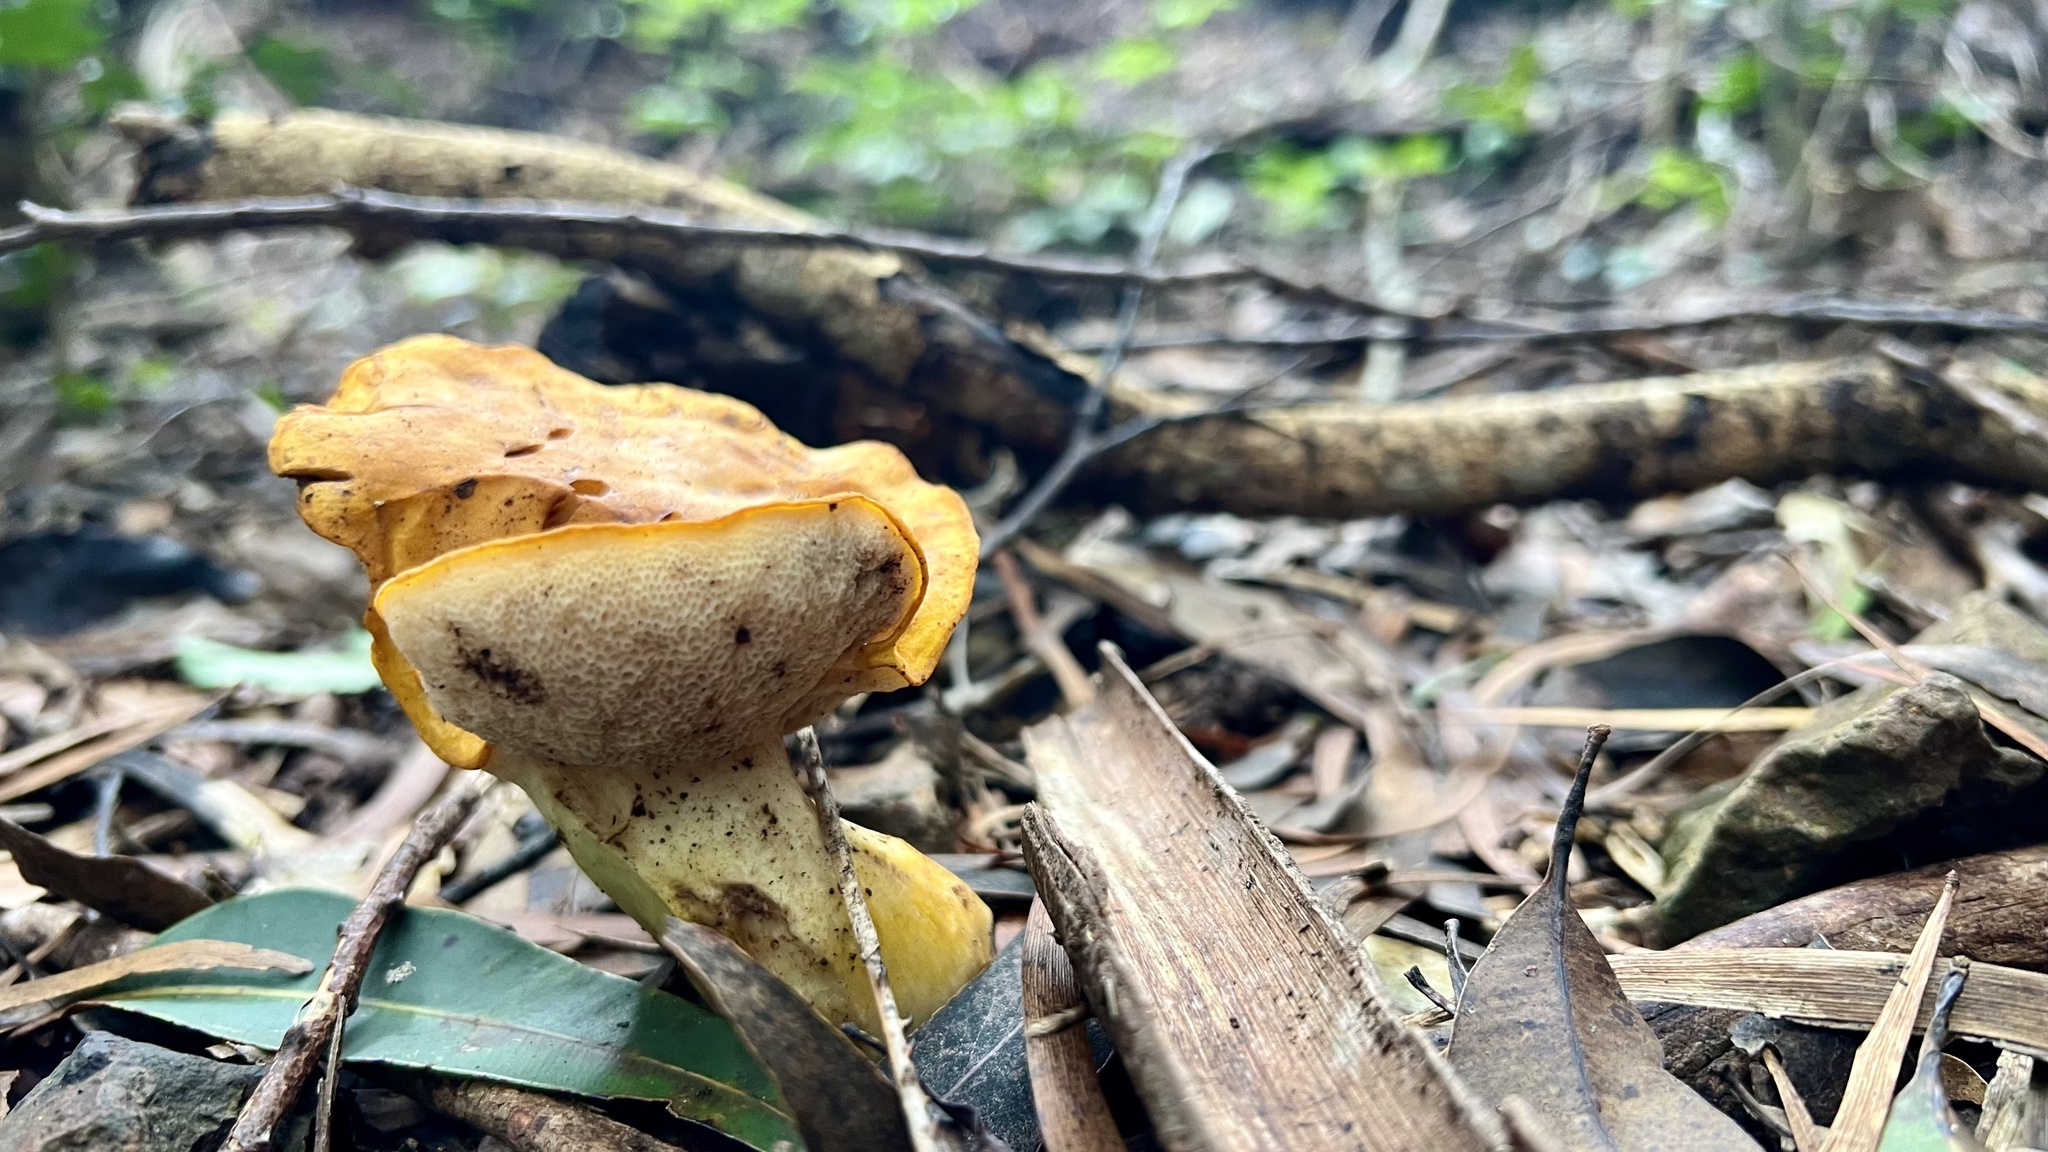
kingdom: Fungi
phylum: Basidiomycota
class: Agaricomycetes
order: Boletales
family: Boletaceae
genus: Tylopilus
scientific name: Tylopilus balloui
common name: Burnt-orange bolete
